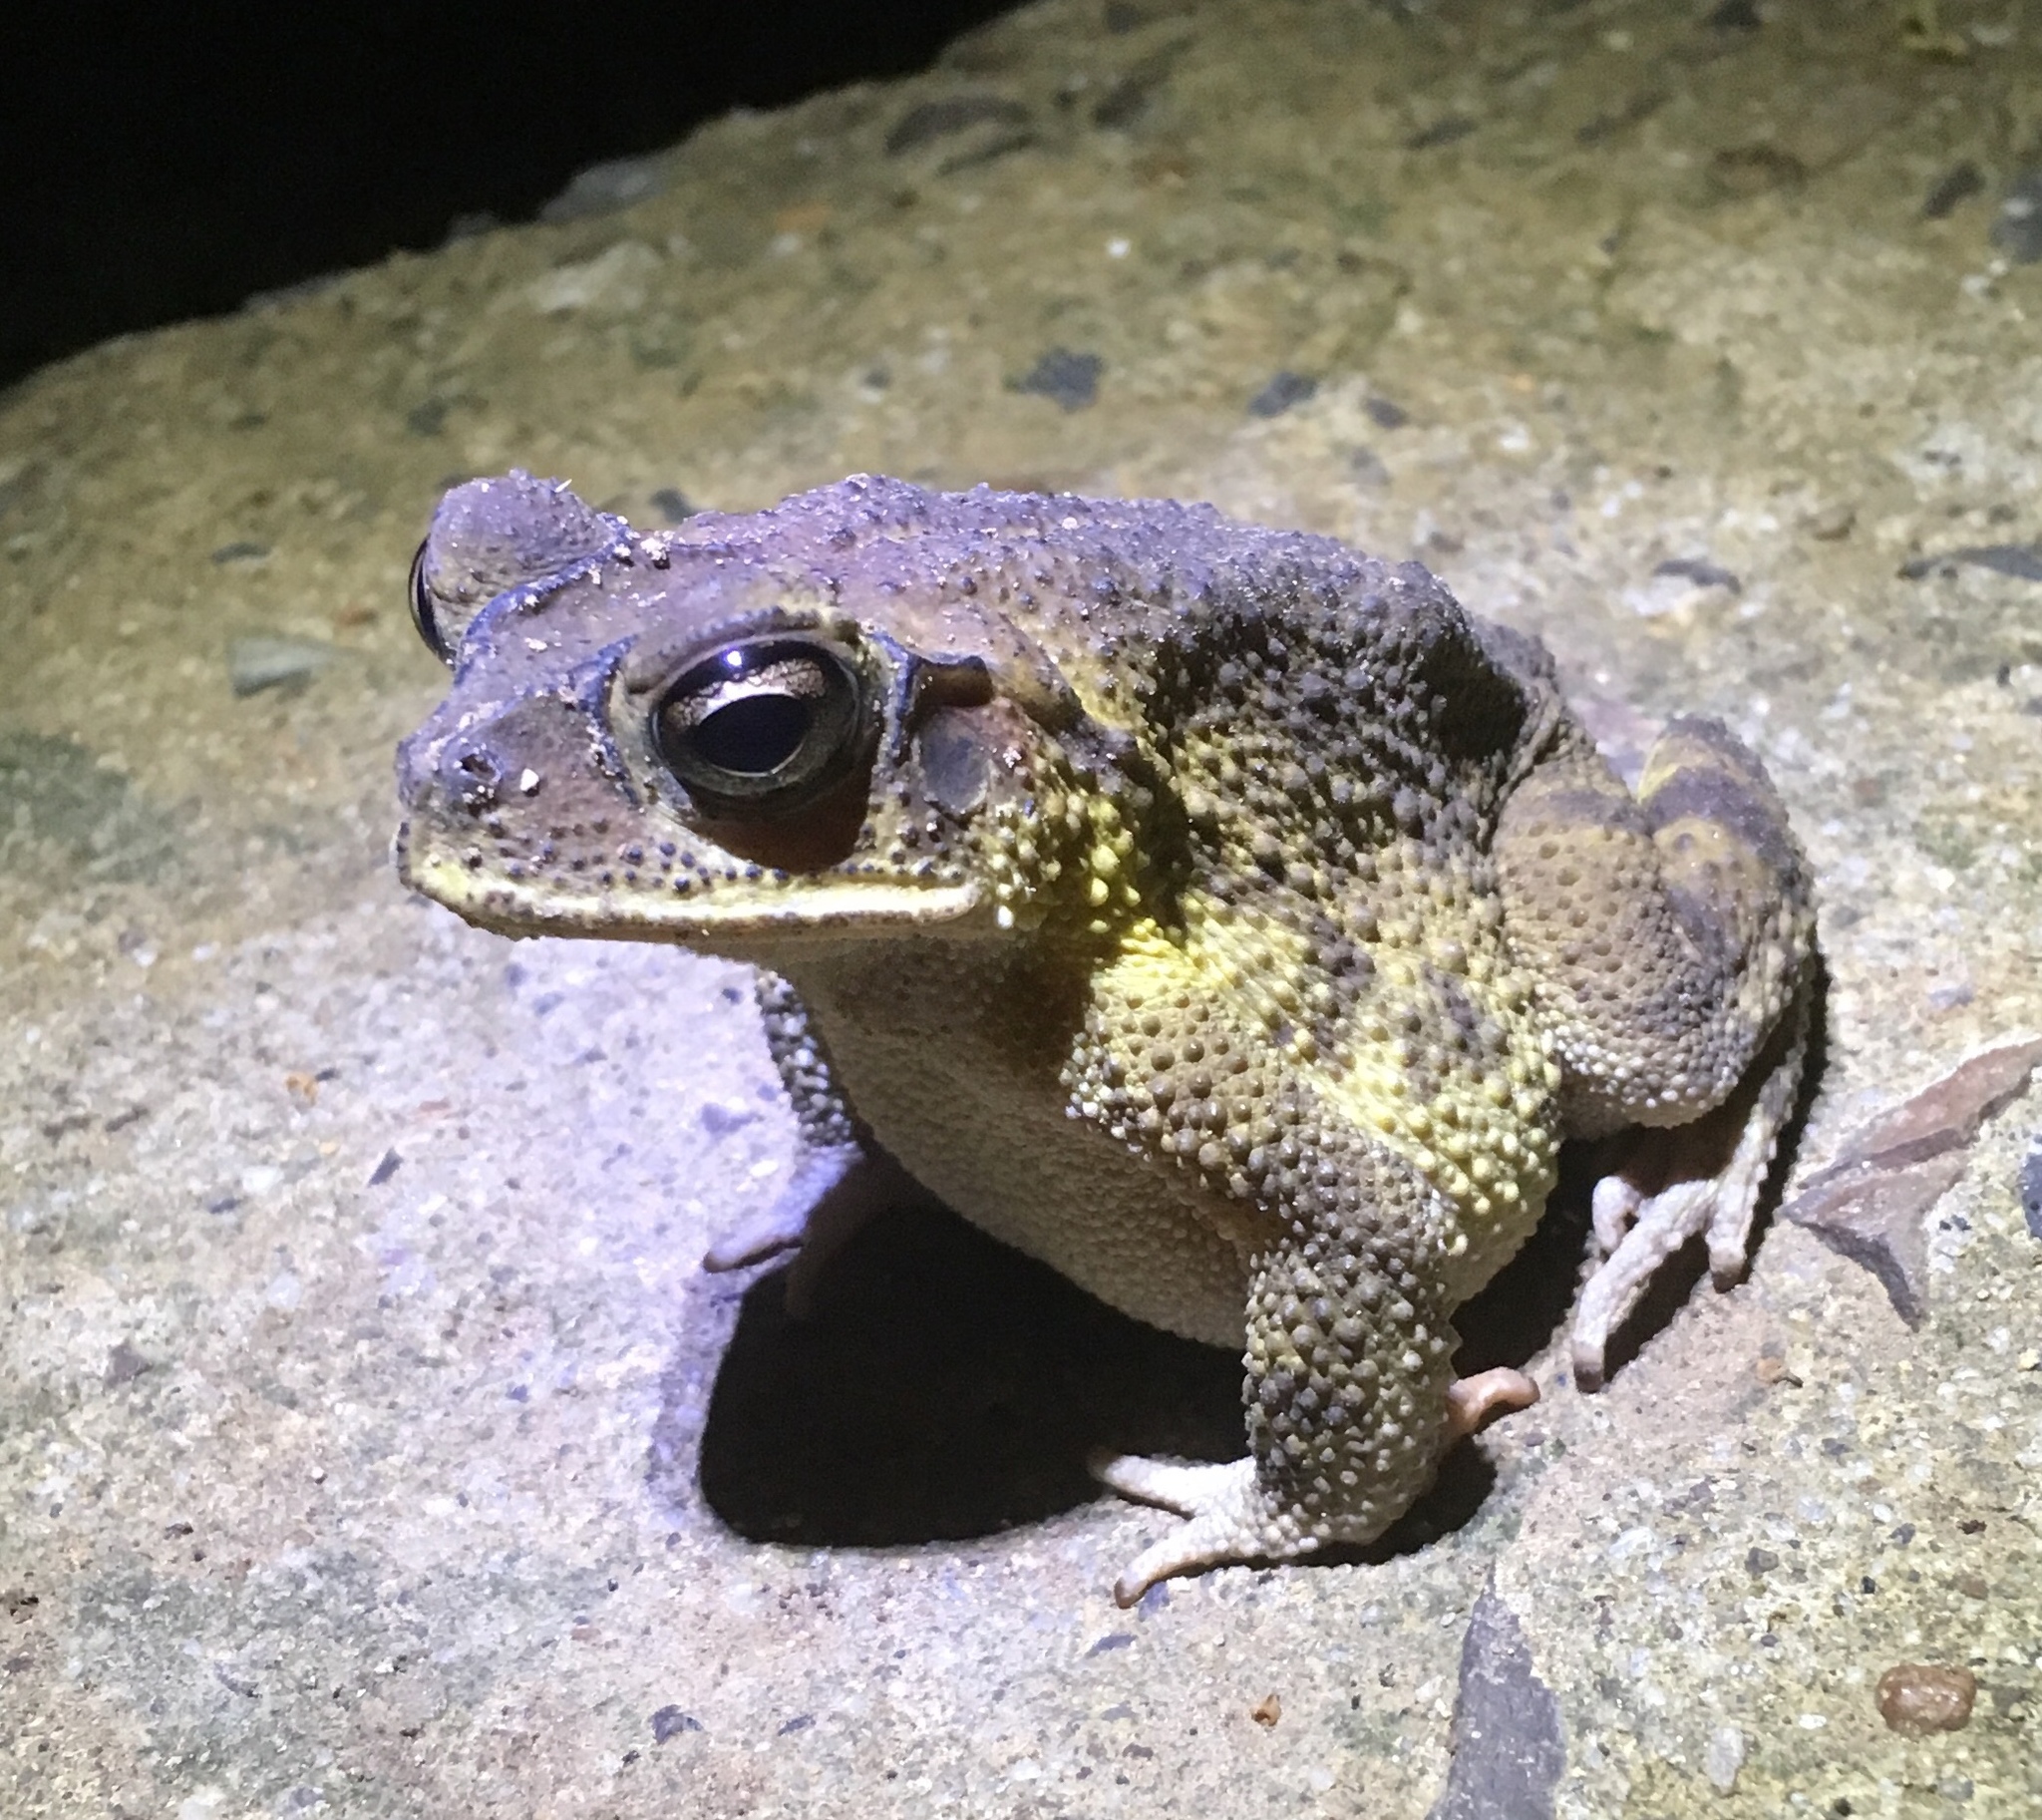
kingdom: Animalia
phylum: Chordata
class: Amphibia
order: Anura
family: Bufonidae
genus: Incilius
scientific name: Incilius luetkenii
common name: Yellow toad
